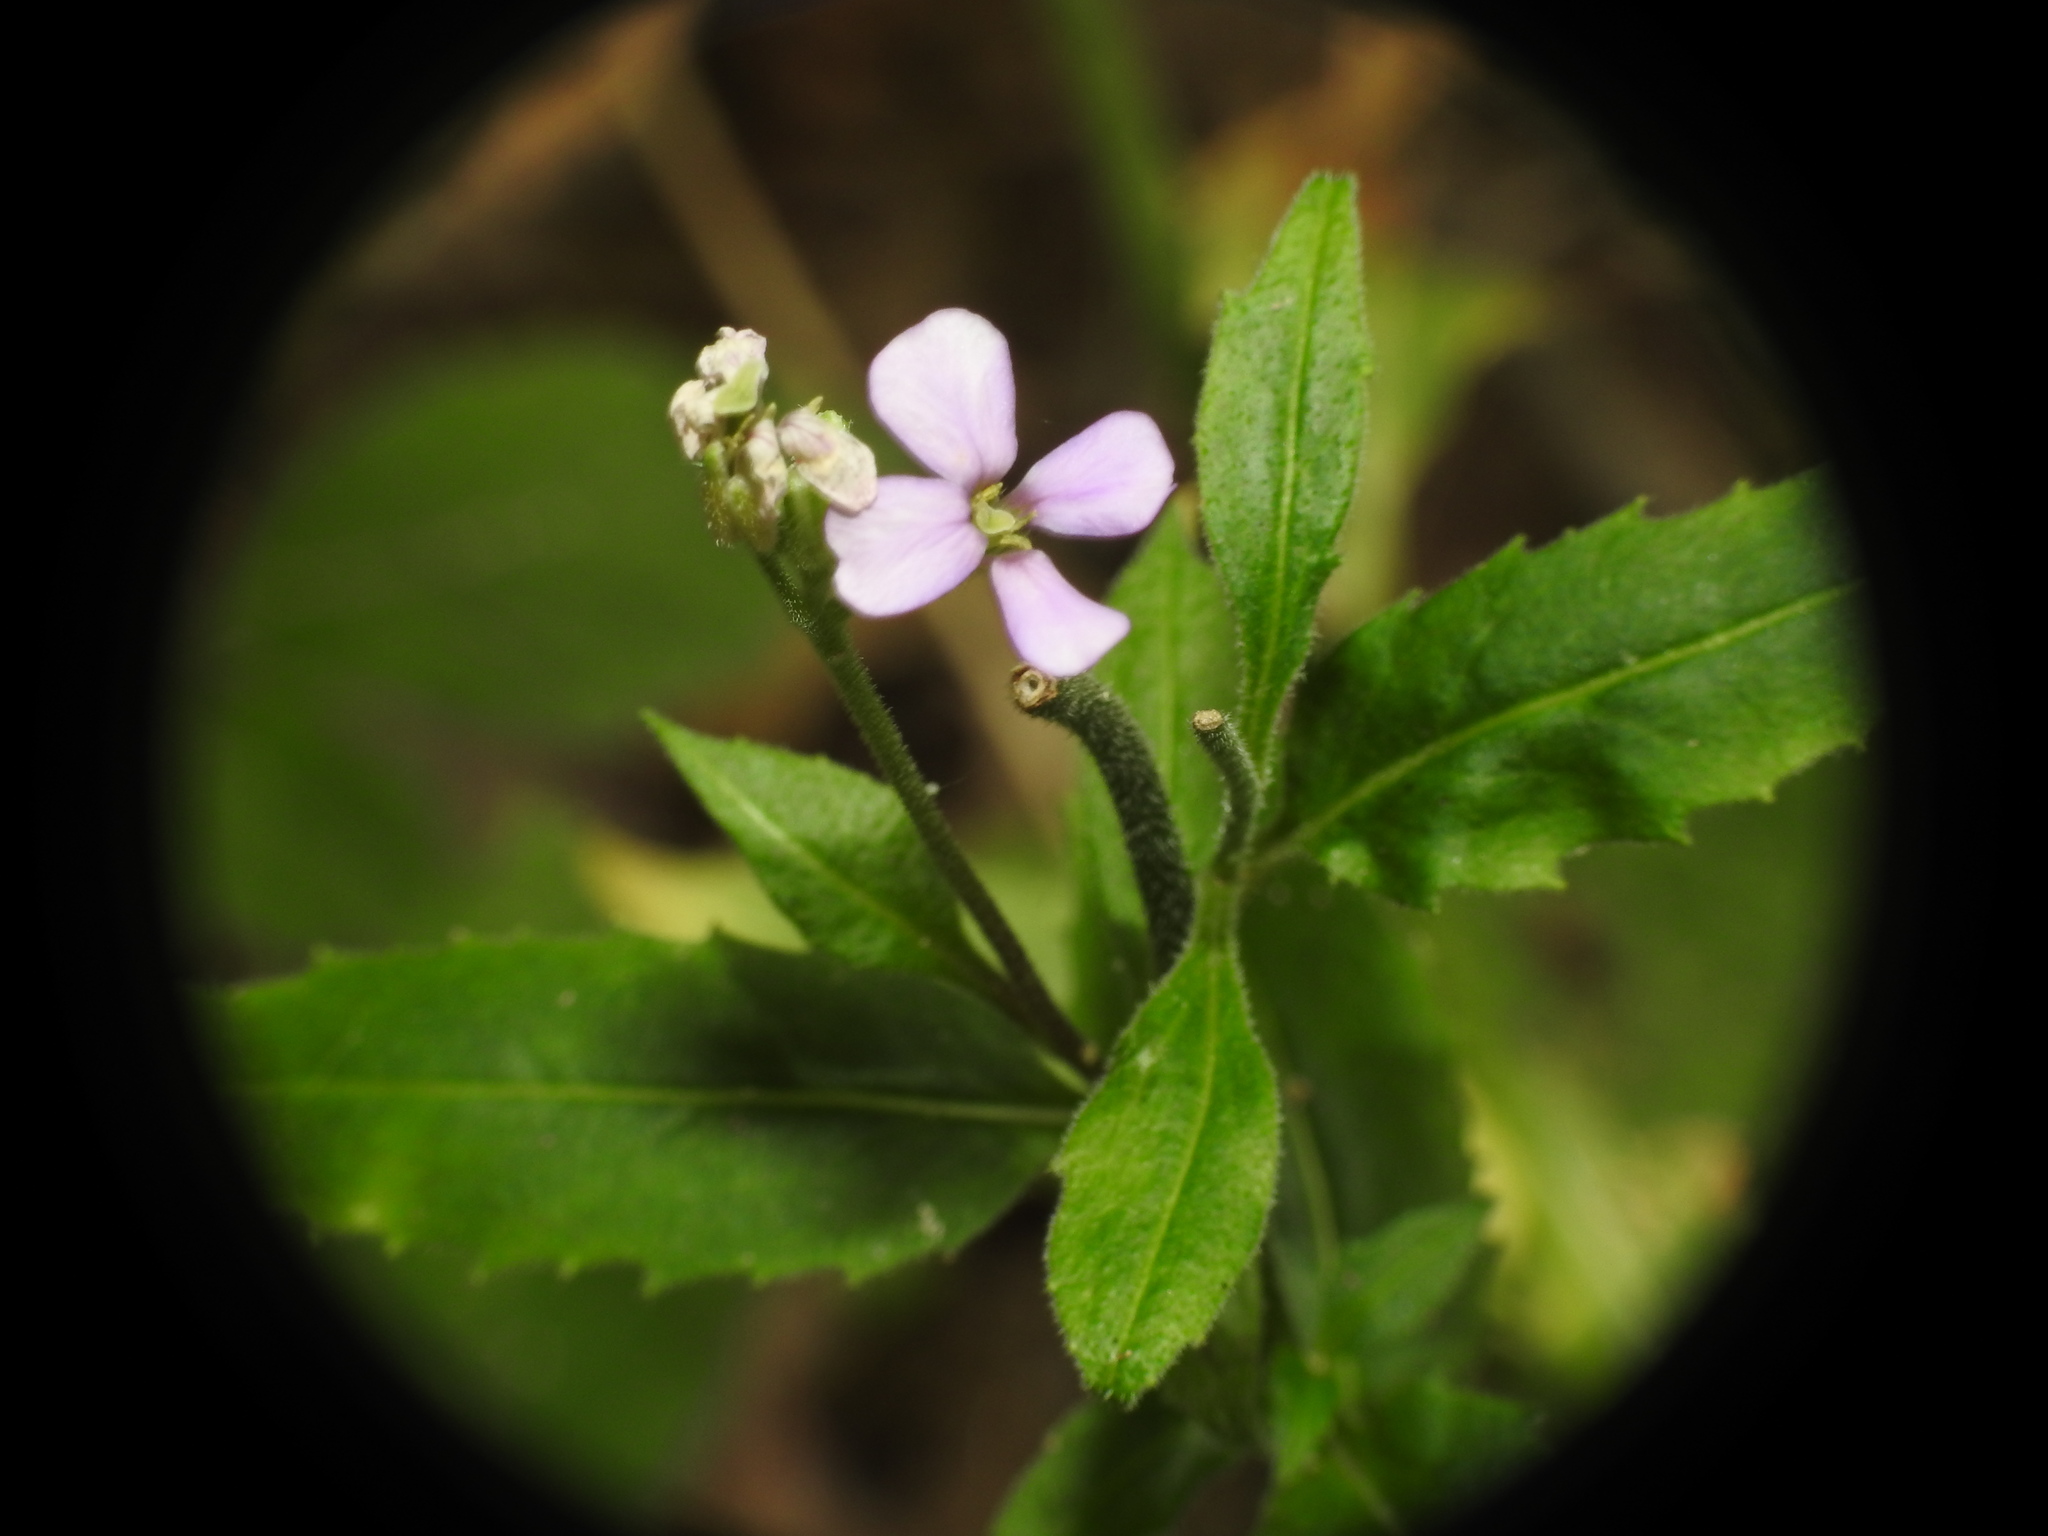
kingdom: Plantae
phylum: Tracheophyta
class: Magnoliopsida
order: Brassicales
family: Brassicaceae
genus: Hesperis
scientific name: Hesperis matronalis
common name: Dame's-violet
